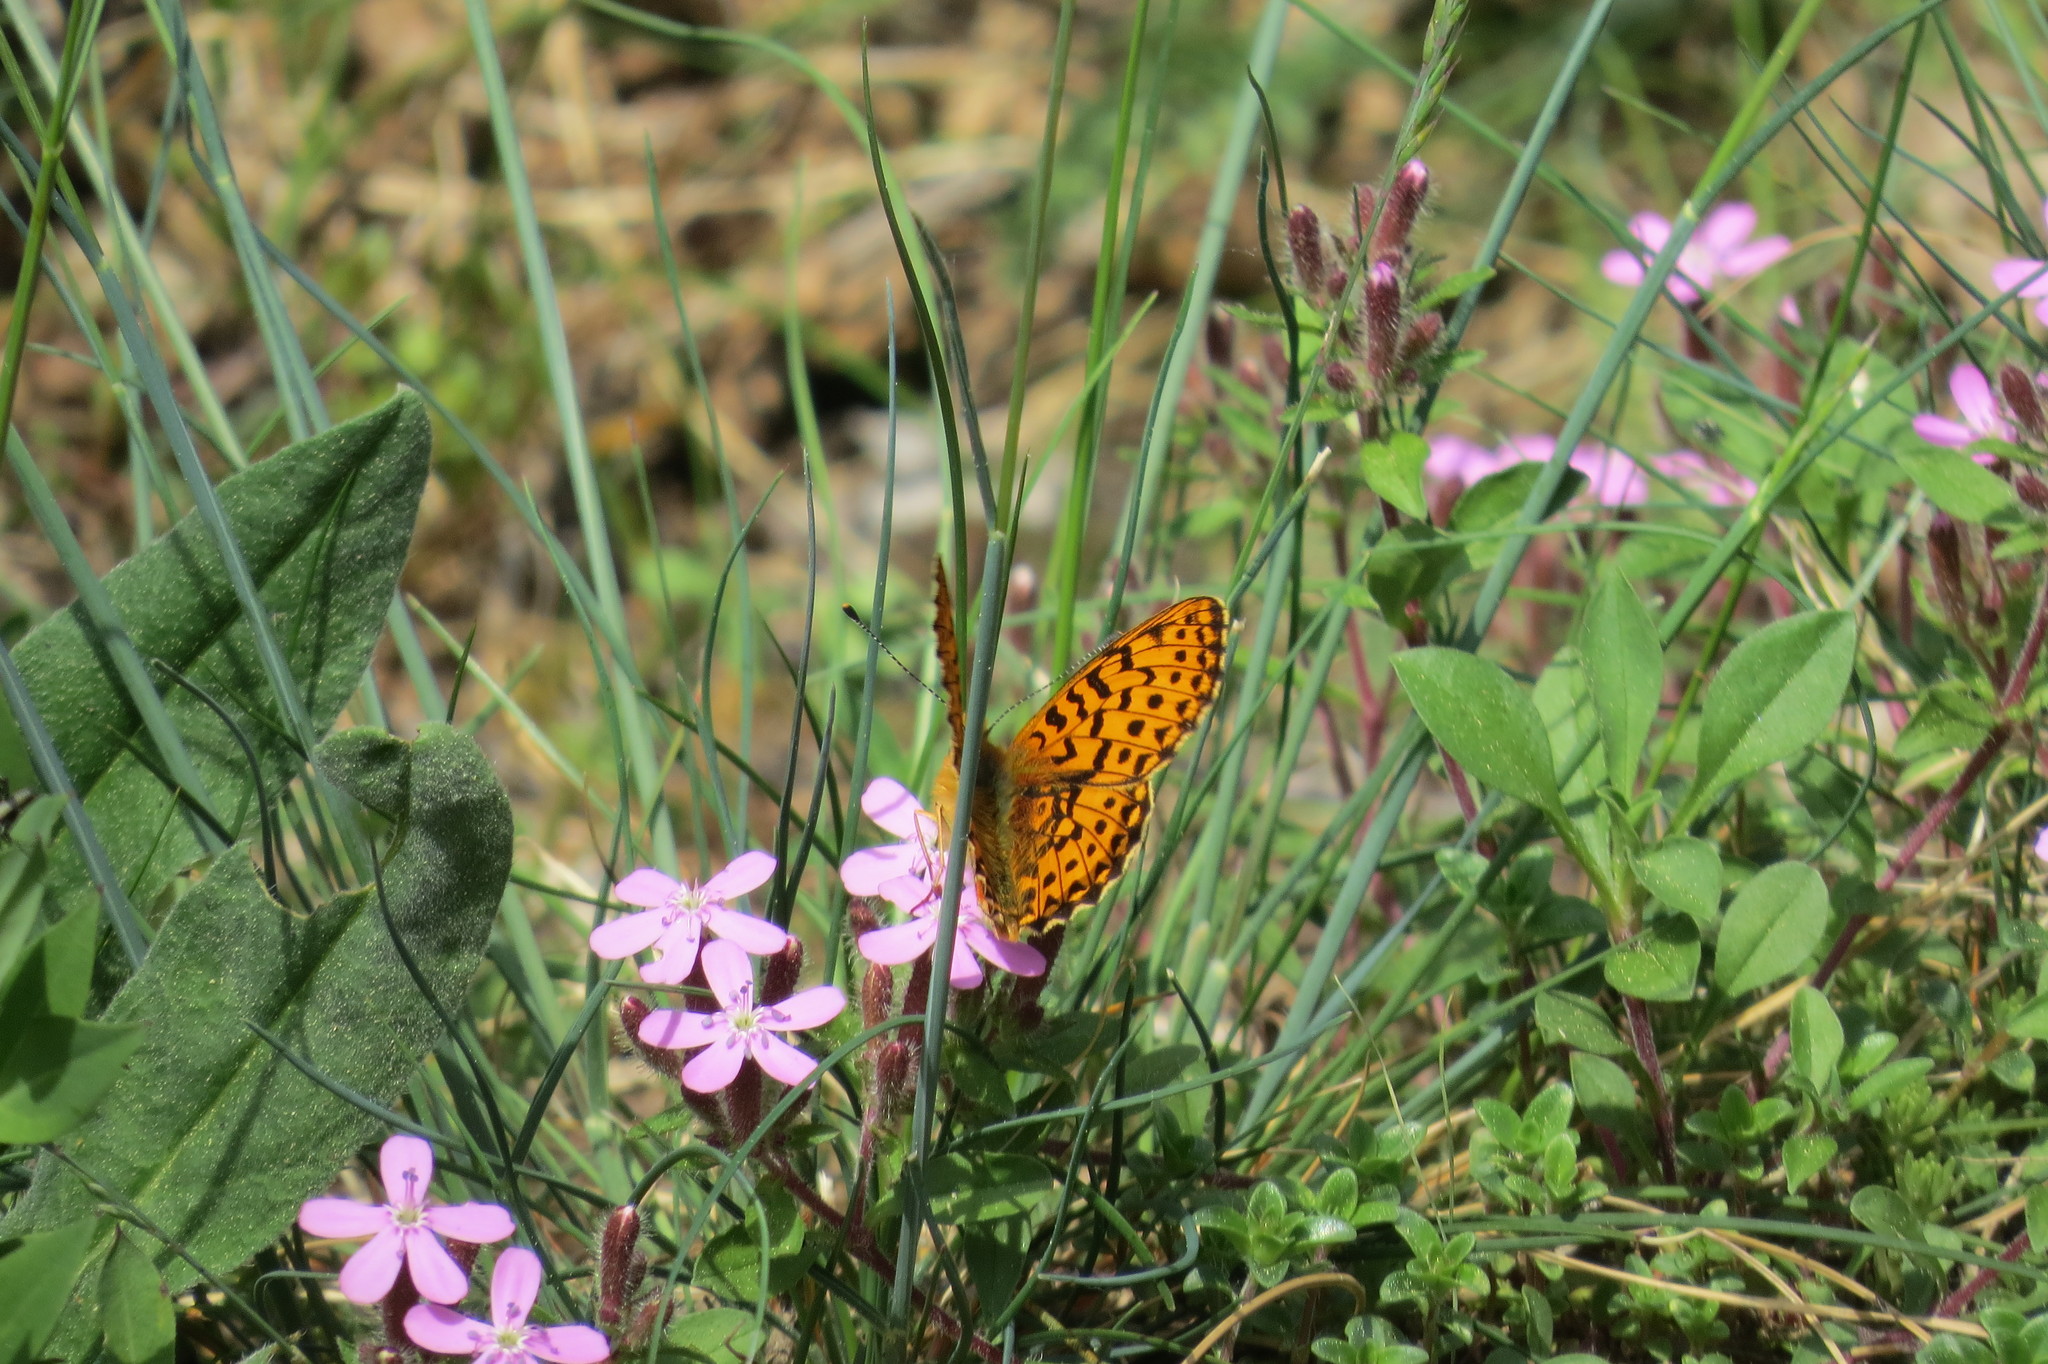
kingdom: Animalia
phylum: Arthropoda
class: Insecta
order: Lepidoptera
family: Nymphalidae
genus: Clossiana
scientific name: Clossiana euphrosyne
